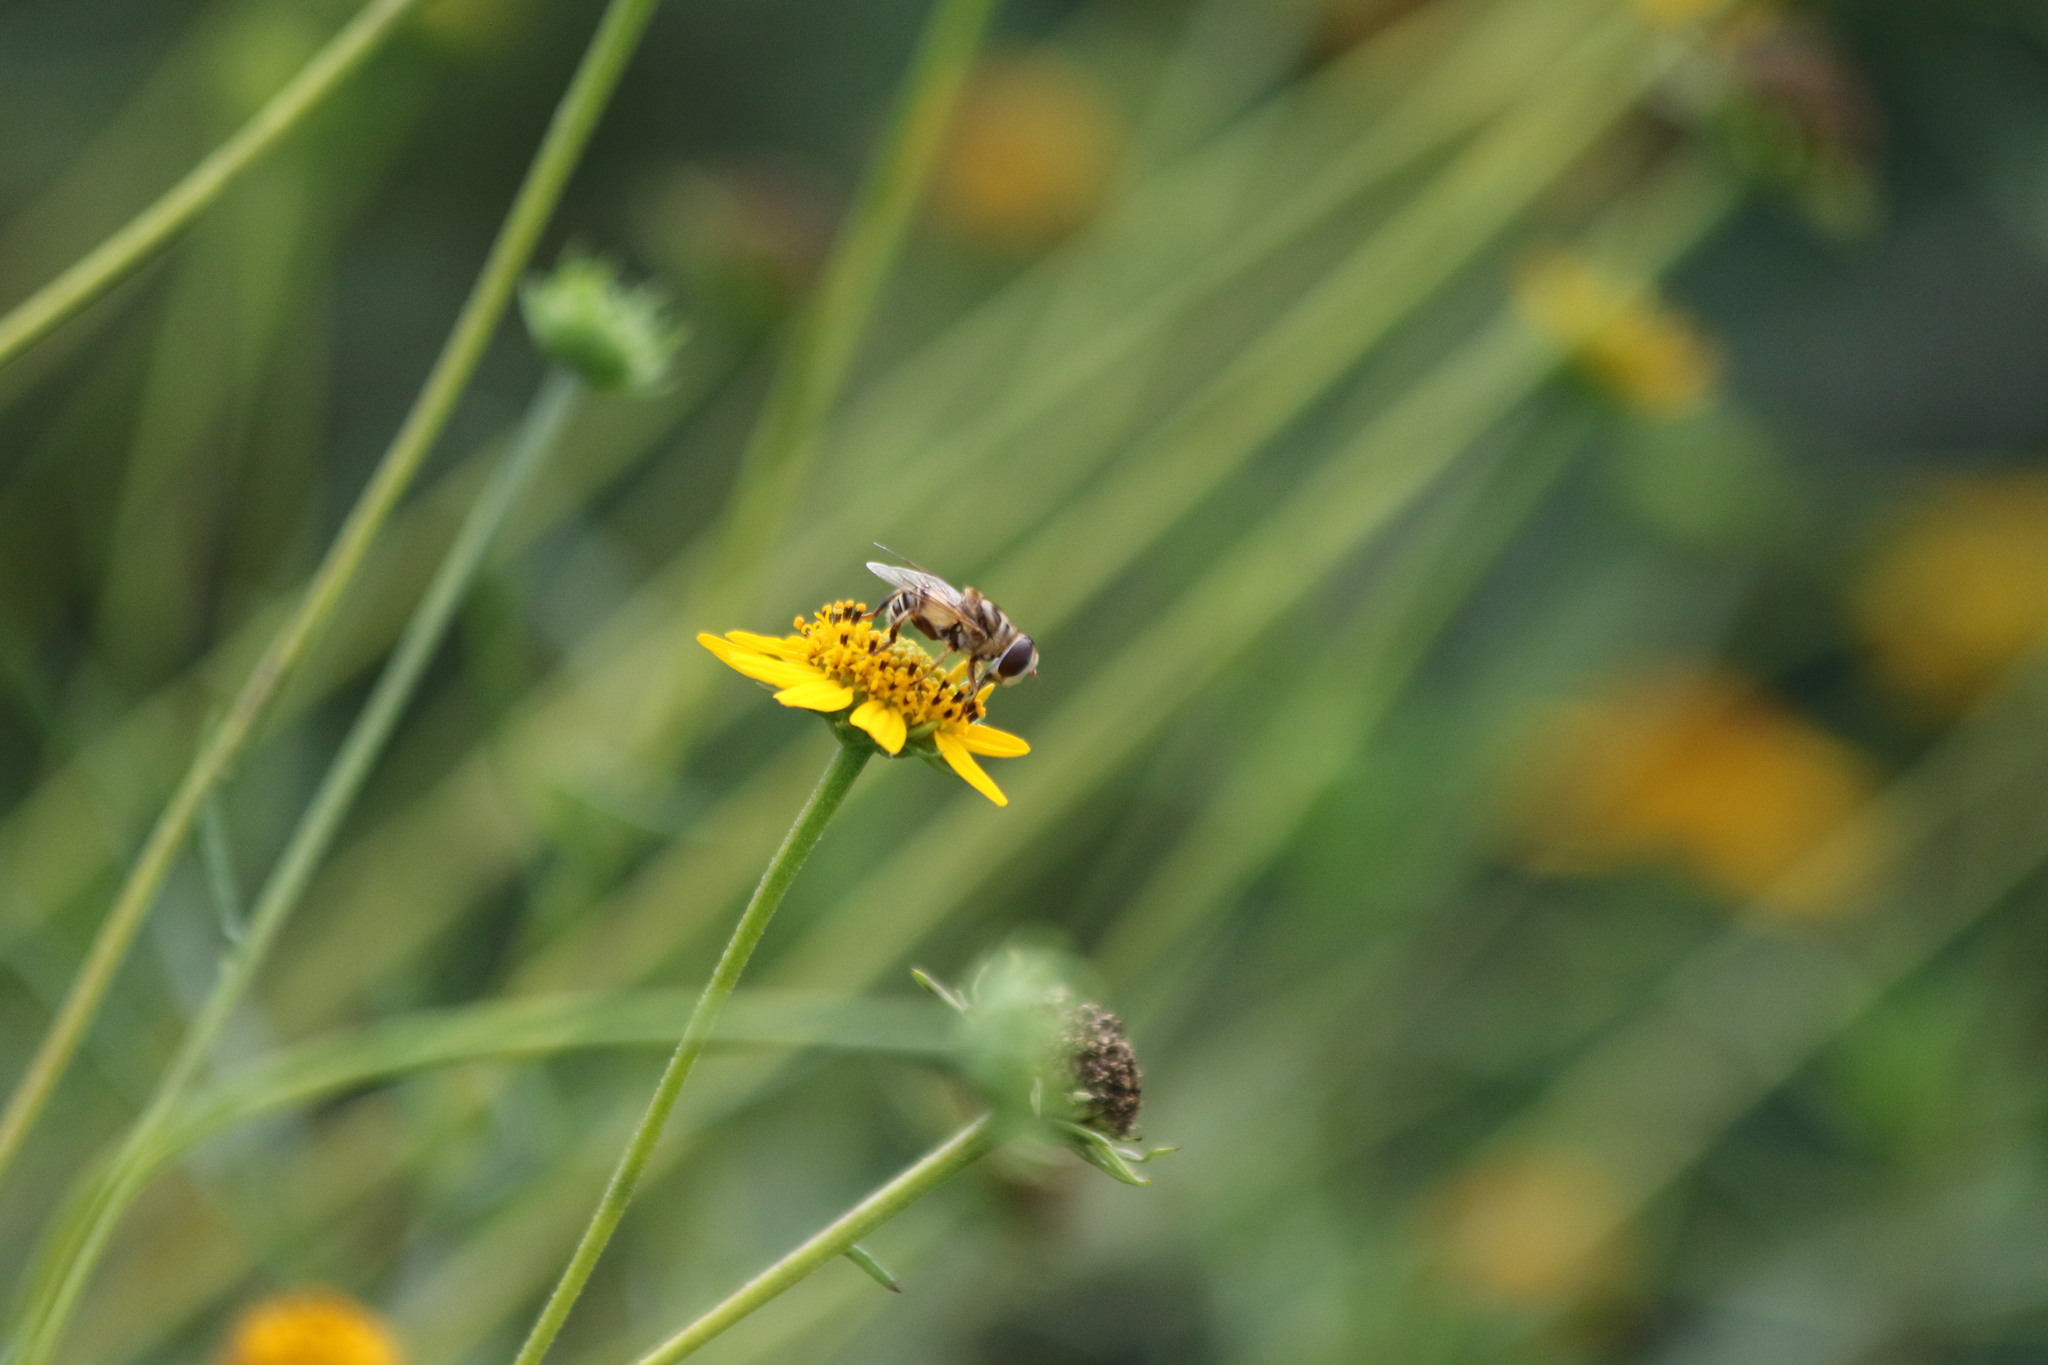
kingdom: Animalia
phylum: Arthropoda
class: Insecta
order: Diptera
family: Syrphidae
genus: Palpada
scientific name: Palpada vinetorum
